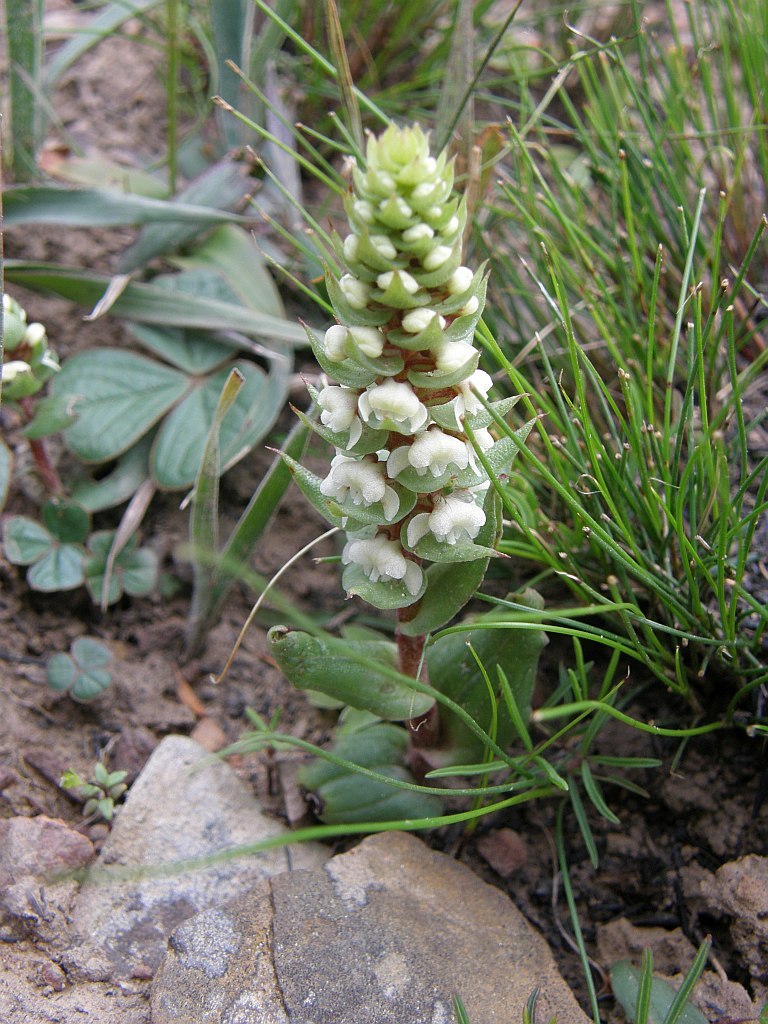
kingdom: Plantae
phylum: Tracheophyta
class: Liliopsida
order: Asparagales
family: Orchidaceae
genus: Satyrium
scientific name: Satyrium bicallosum
